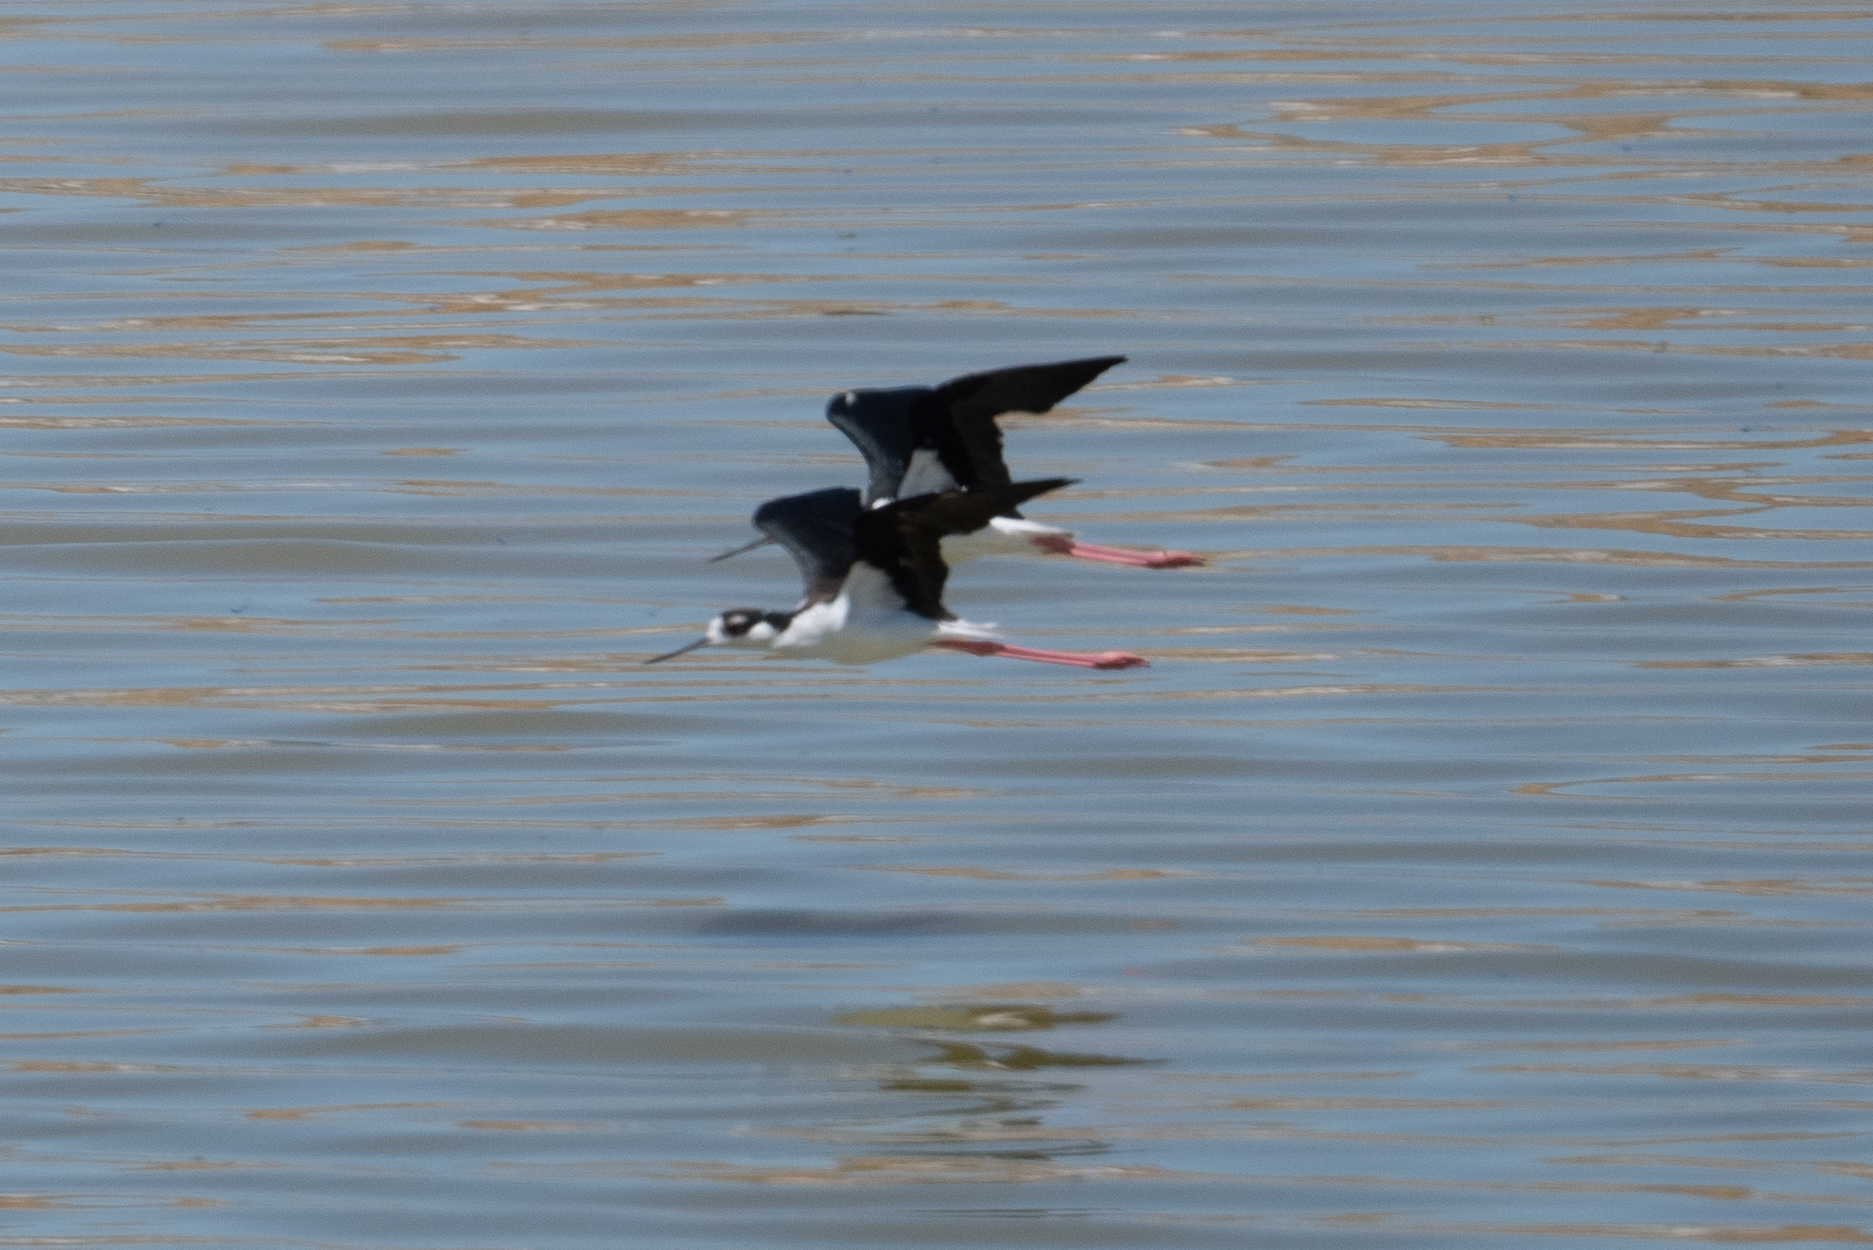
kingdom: Animalia
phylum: Chordata
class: Aves
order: Charadriiformes
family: Recurvirostridae
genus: Himantopus
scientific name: Himantopus mexicanus
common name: Black-necked stilt
